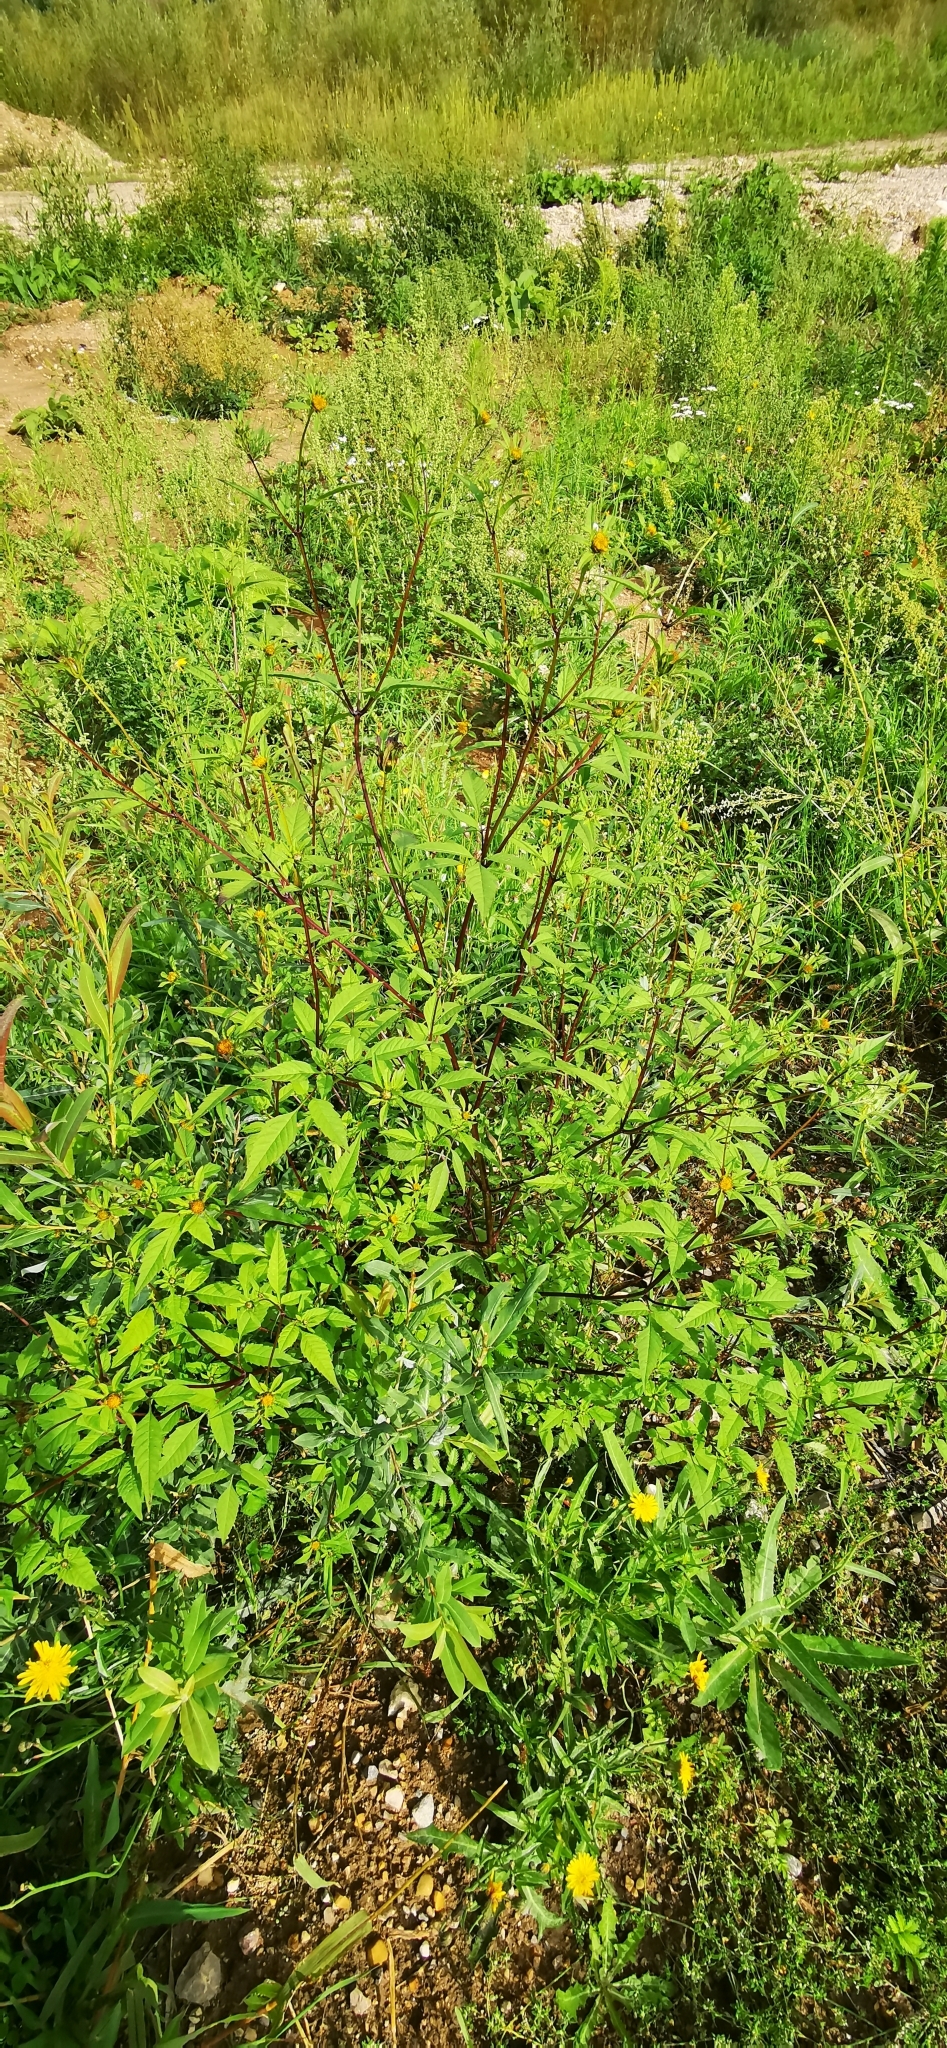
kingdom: Plantae
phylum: Tracheophyta
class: Magnoliopsida
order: Asterales
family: Asteraceae
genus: Bidens
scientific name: Bidens frondosa
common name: Beggarticks
